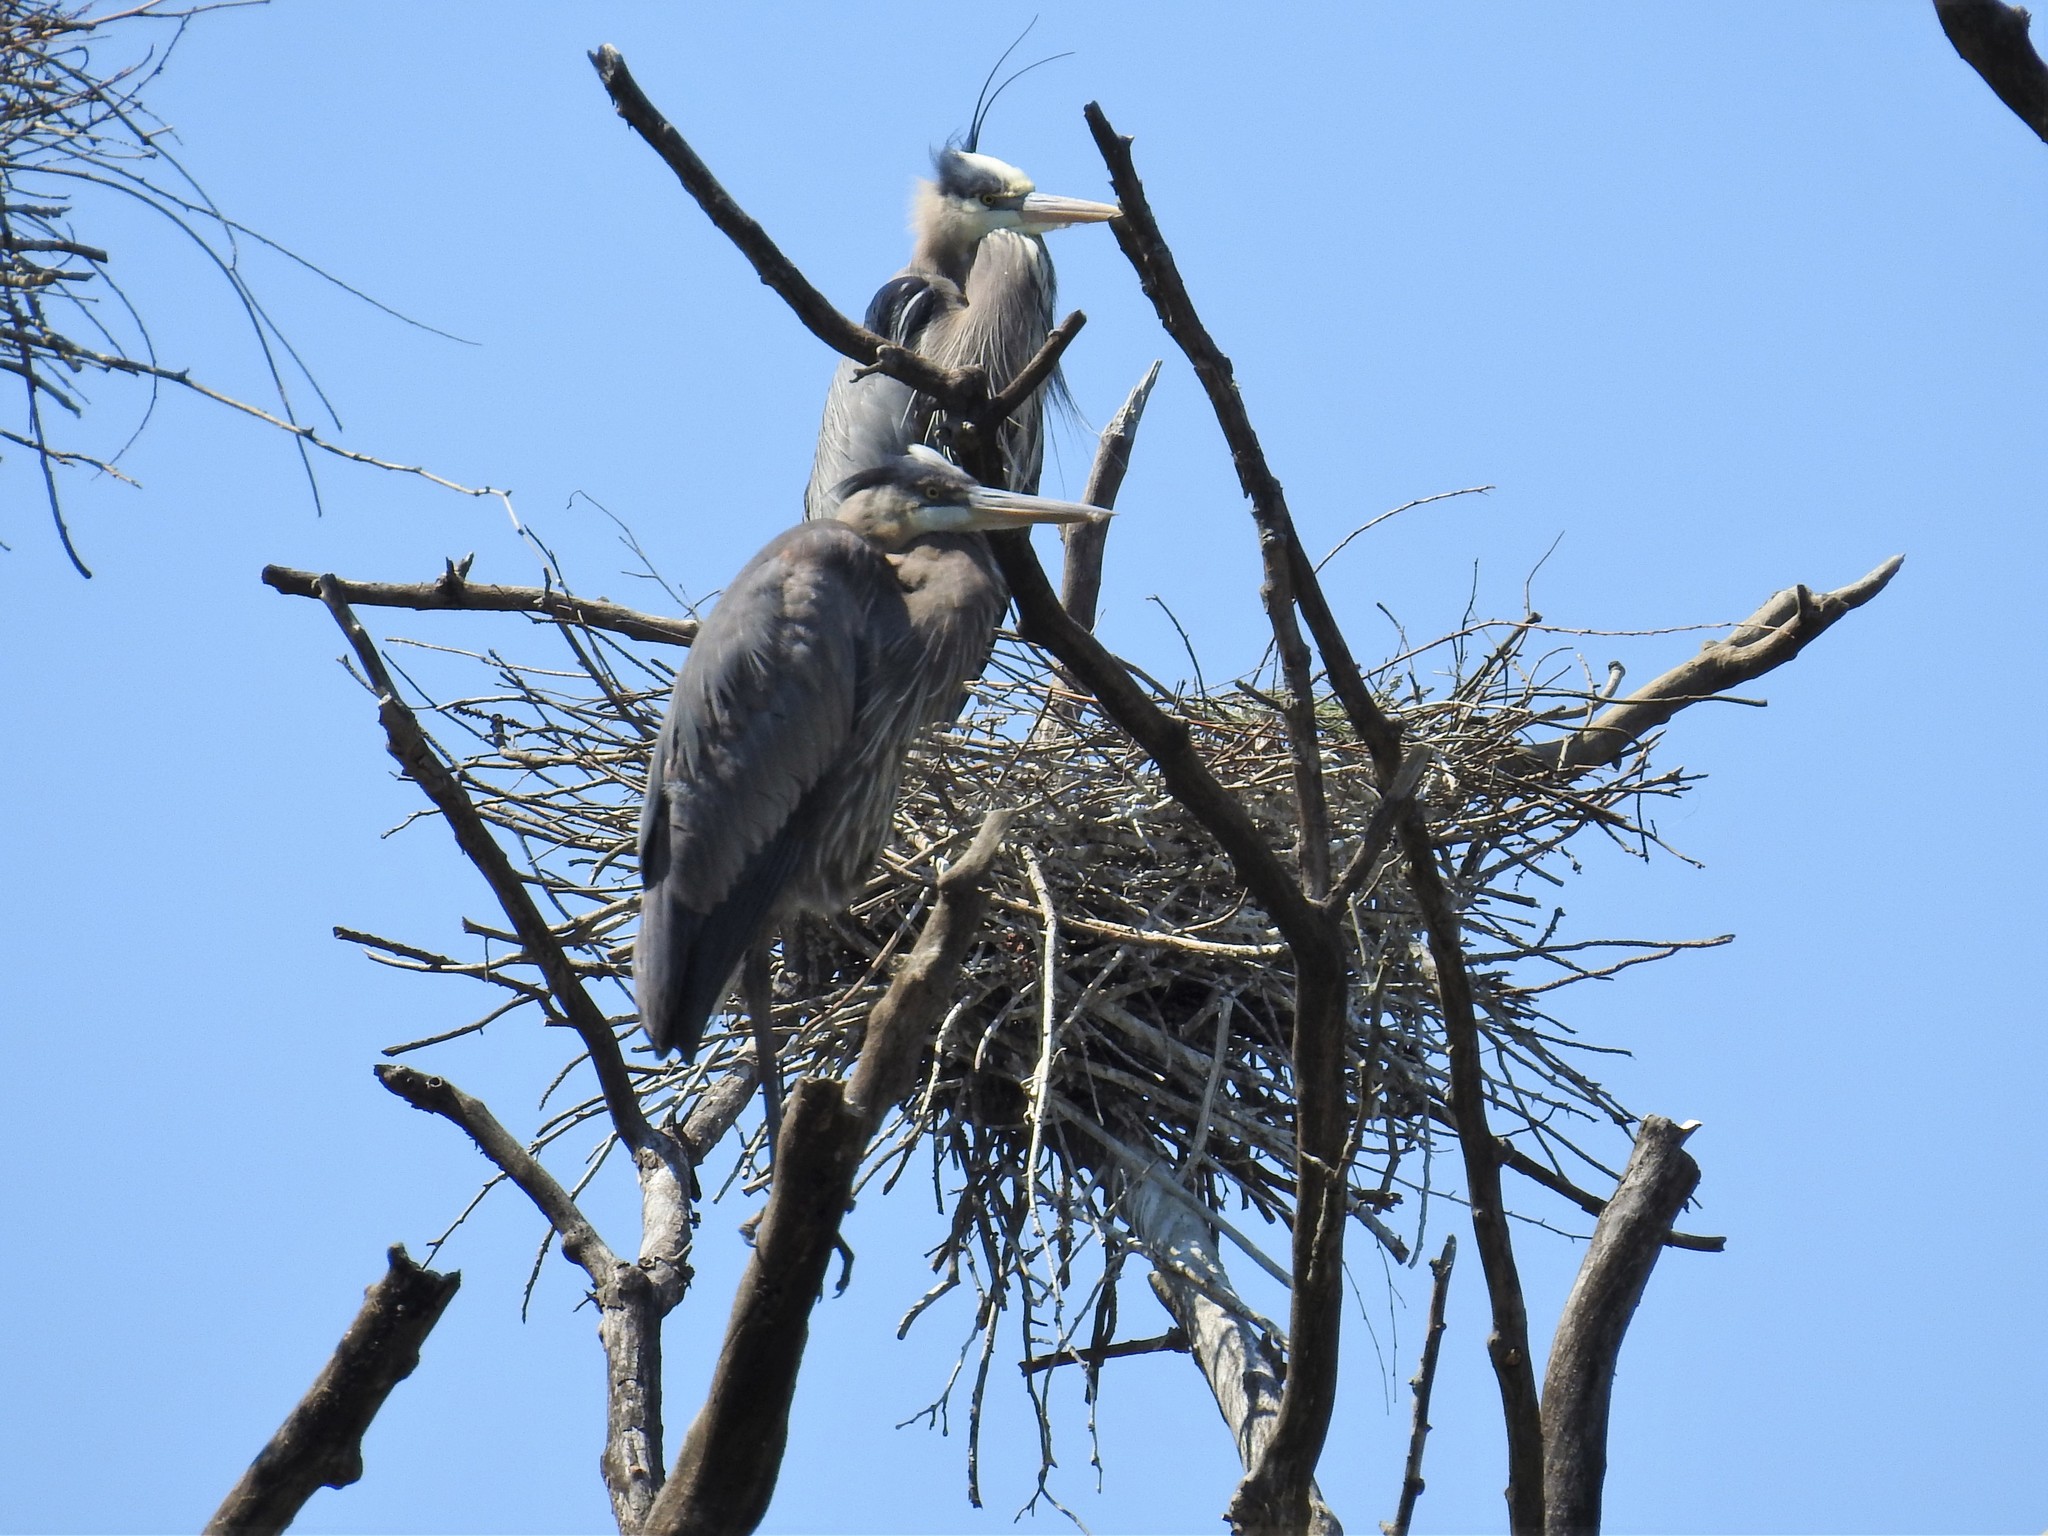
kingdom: Animalia
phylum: Chordata
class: Aves
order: Pelecaniformes
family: Ardeidae
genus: Ardea
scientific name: Ardea herodias
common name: Great blue heron
